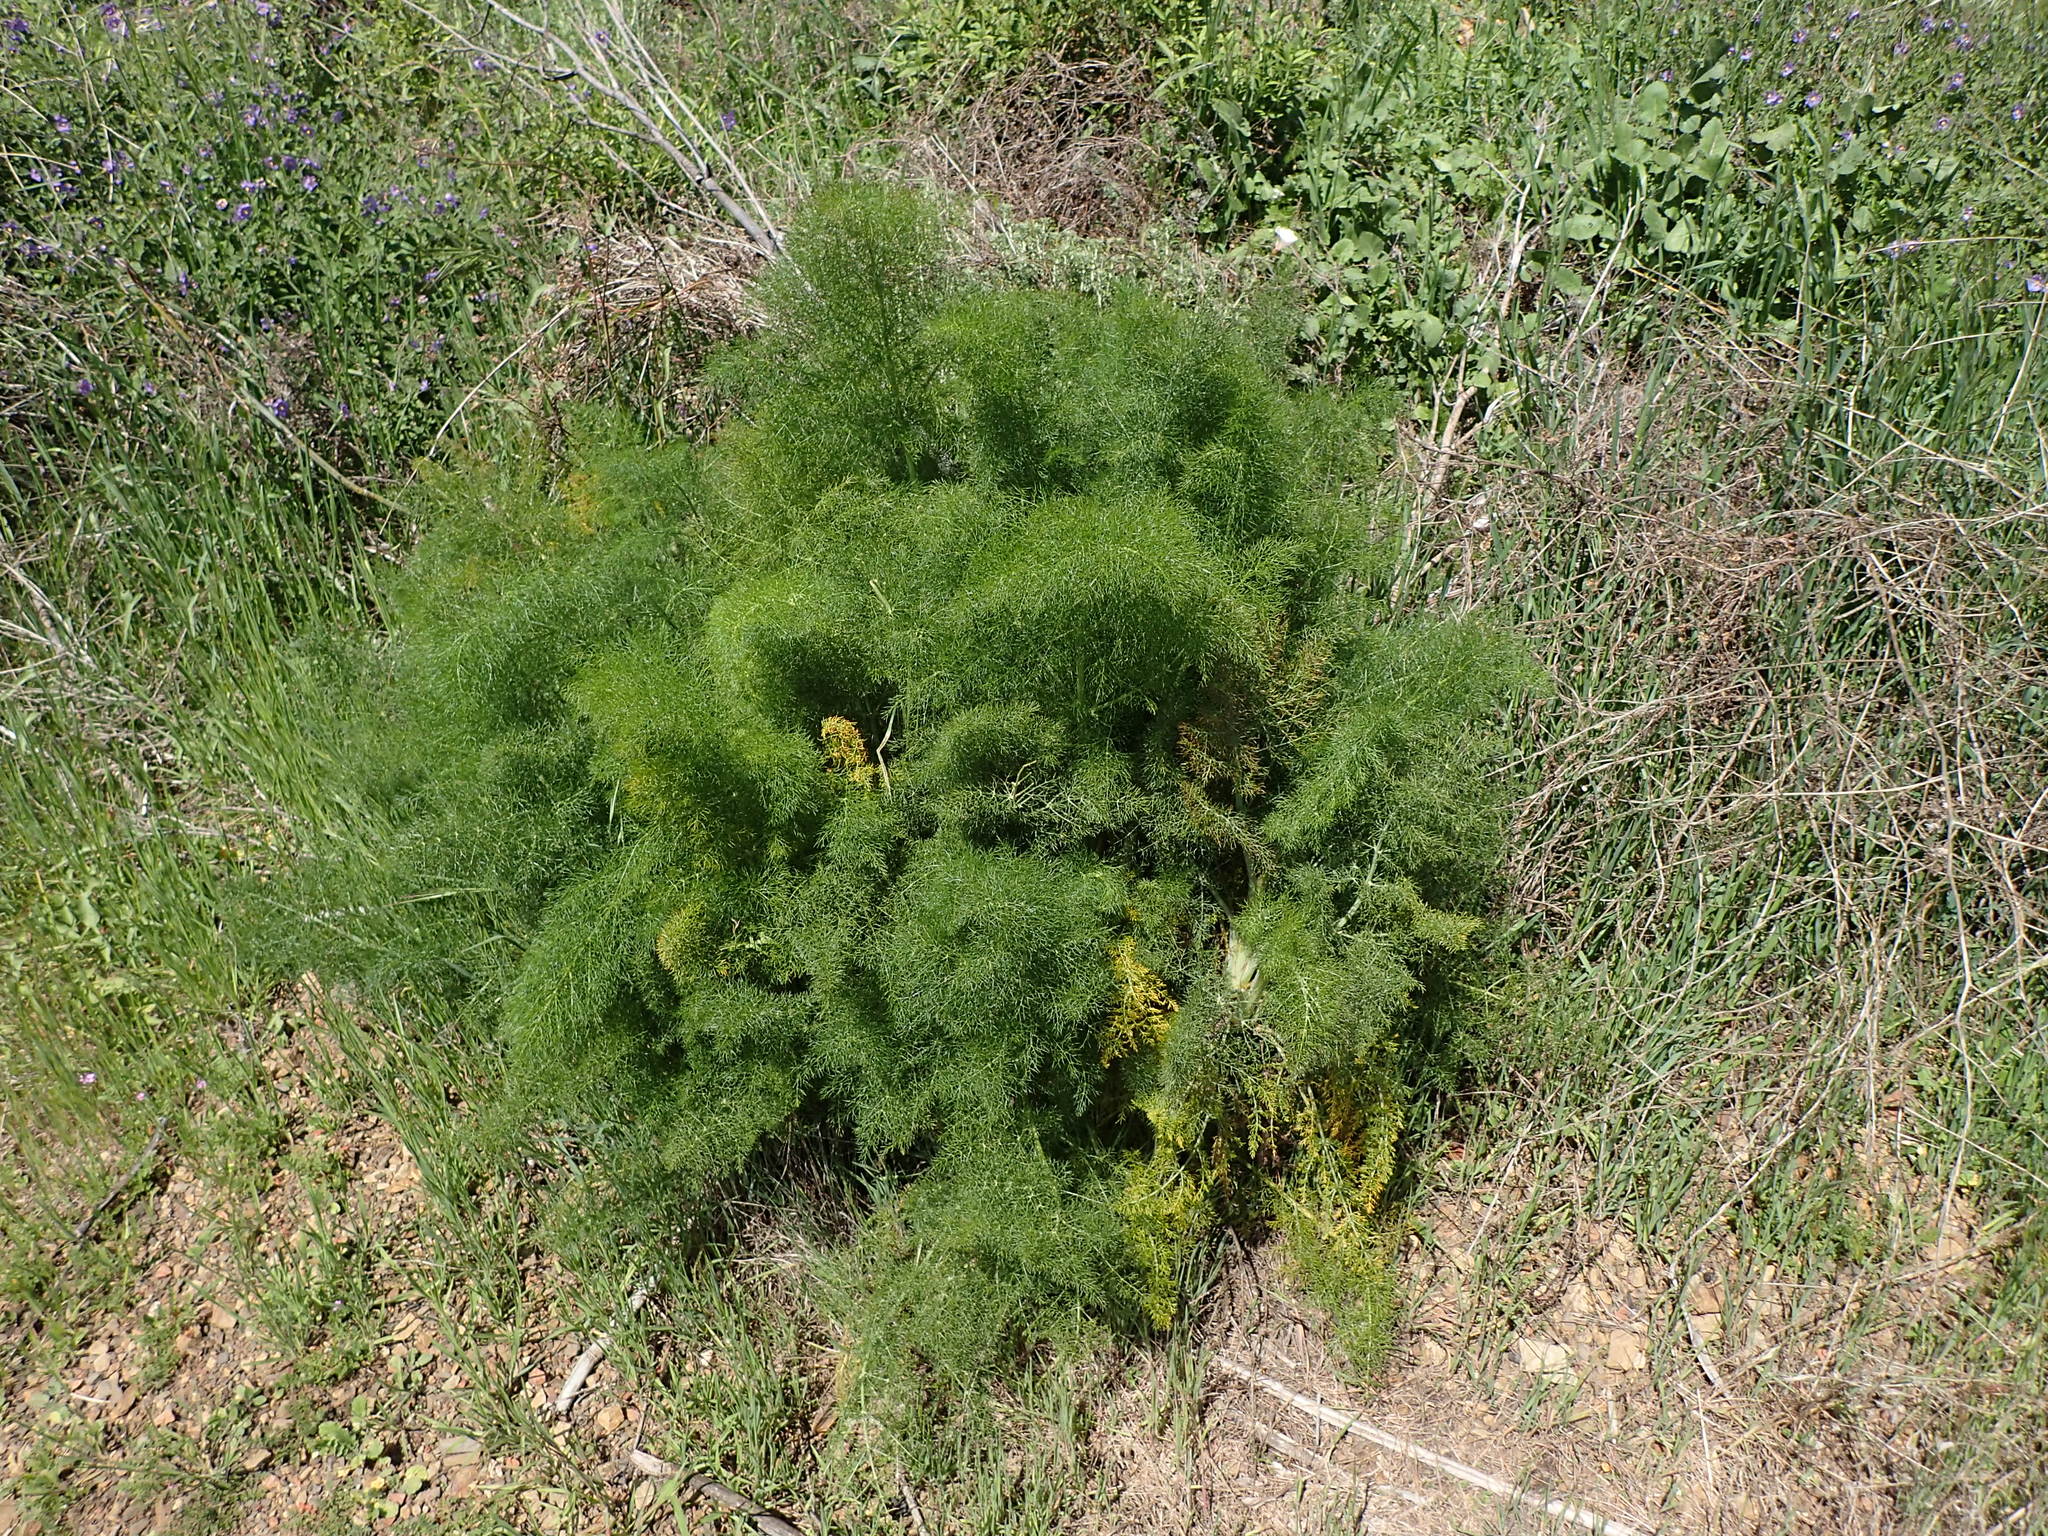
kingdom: Plantae
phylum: Tracheophyta
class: Magnoliopsida
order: Apiales
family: Apiaceae
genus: Foeniculum
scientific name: Foeniculum vulgare
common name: Fennel
